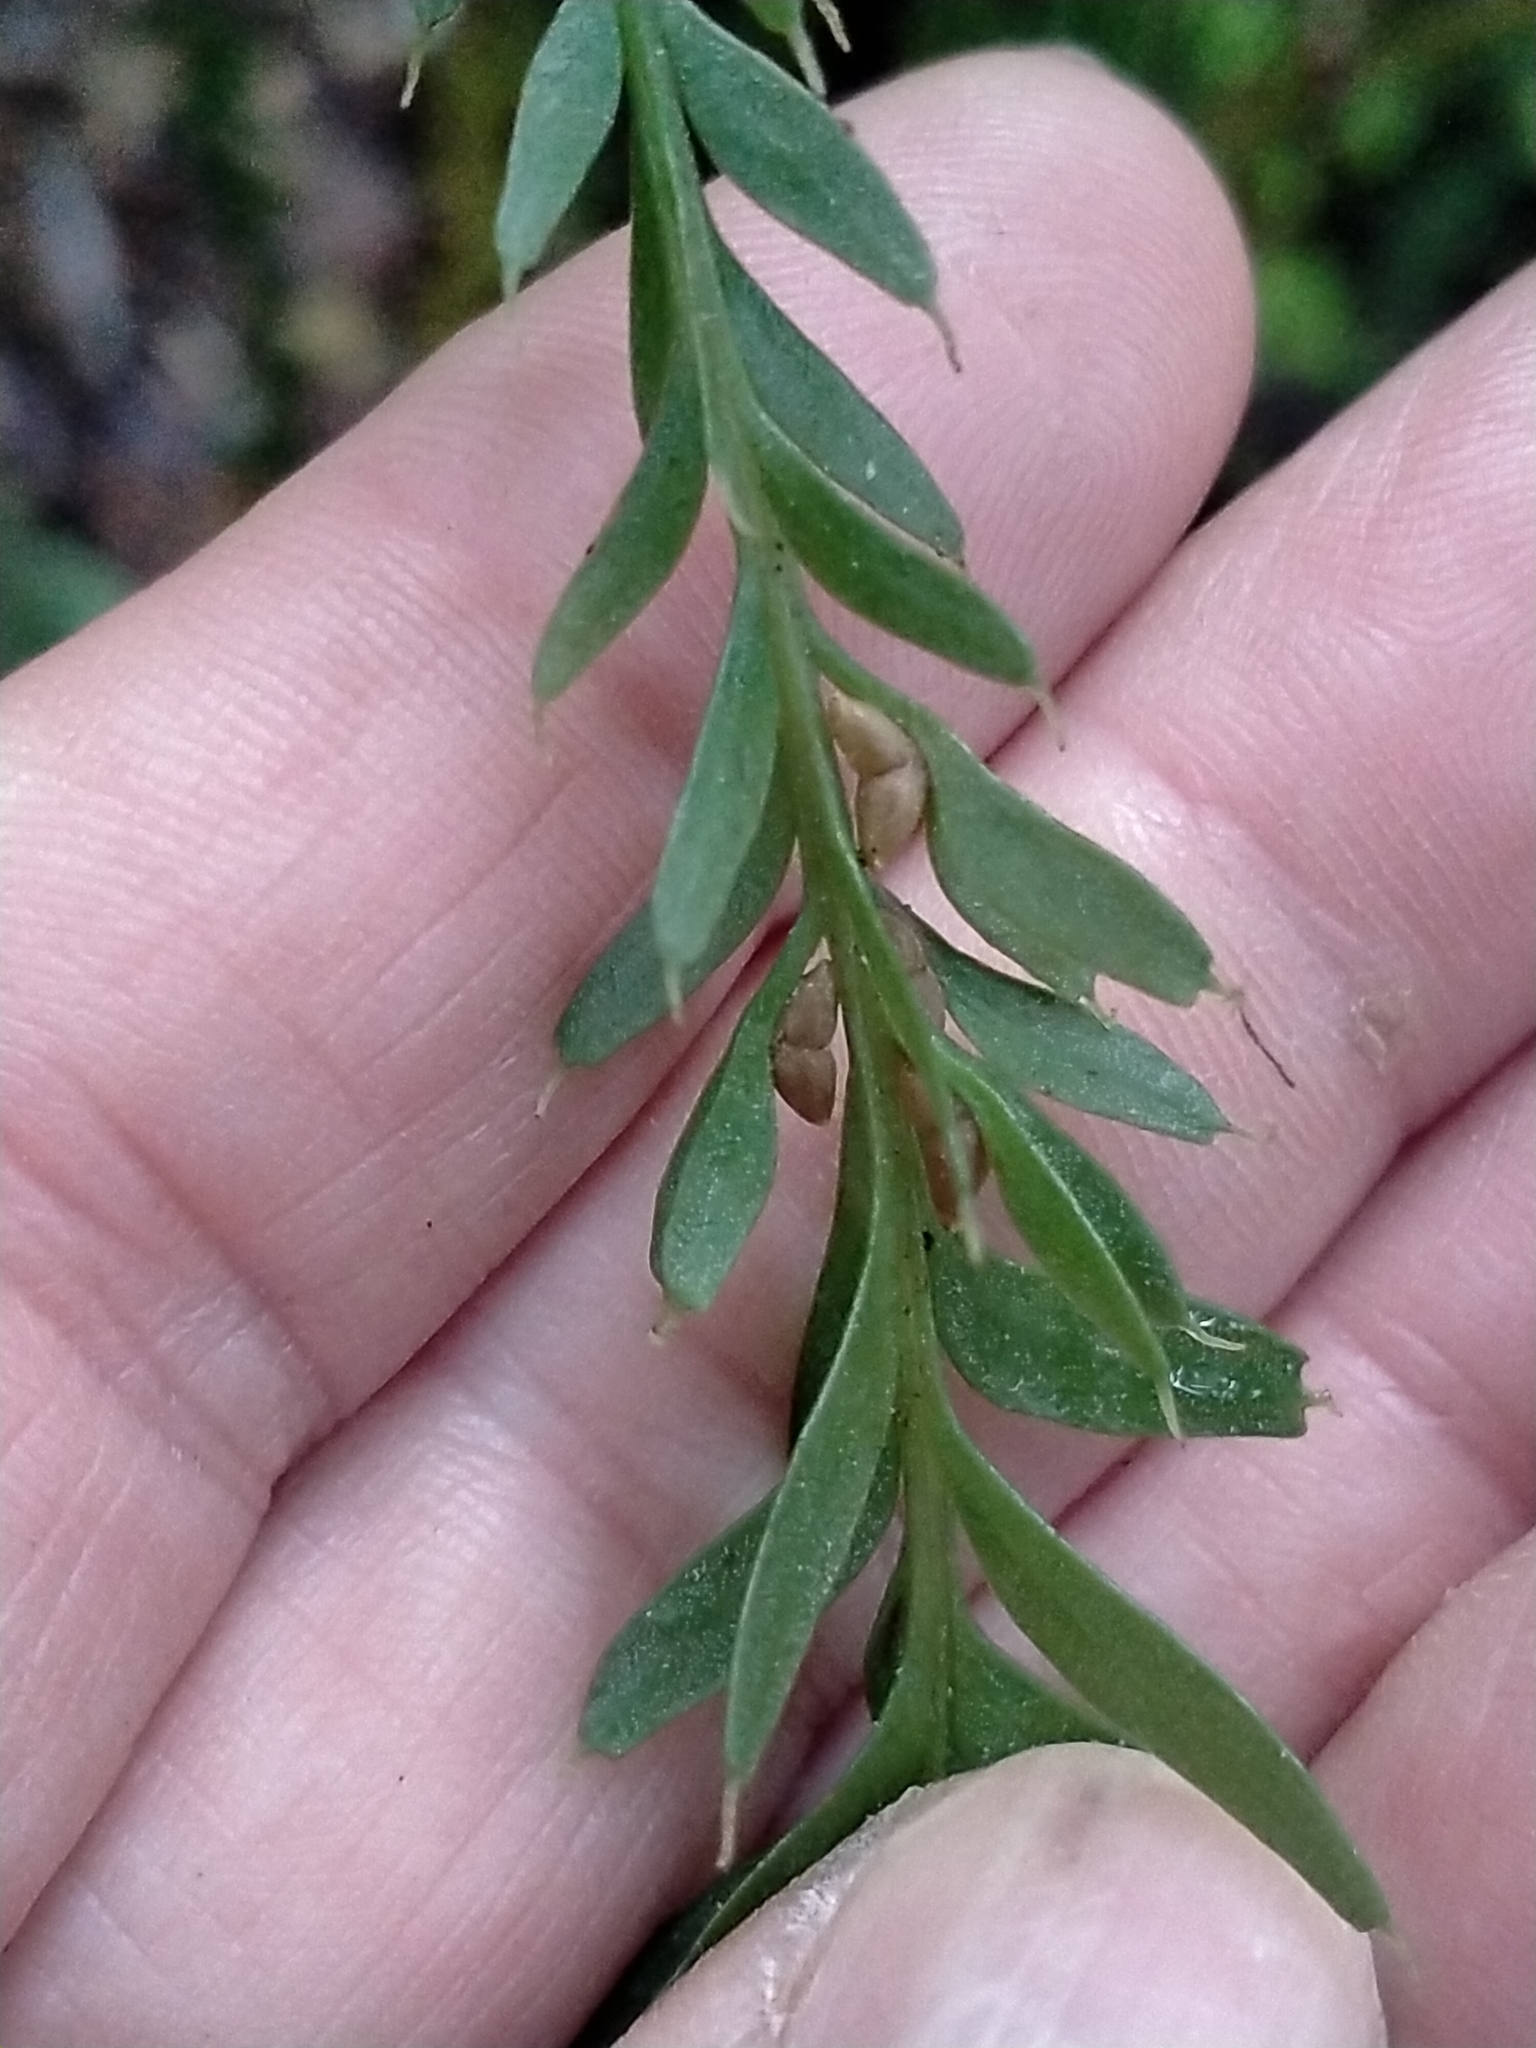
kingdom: Plantae
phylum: Tracheophyta
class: Polypodiopsida
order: Psilotales
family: Psilotaceae
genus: Tmesipteris
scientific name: Tmesipteris tannensis
